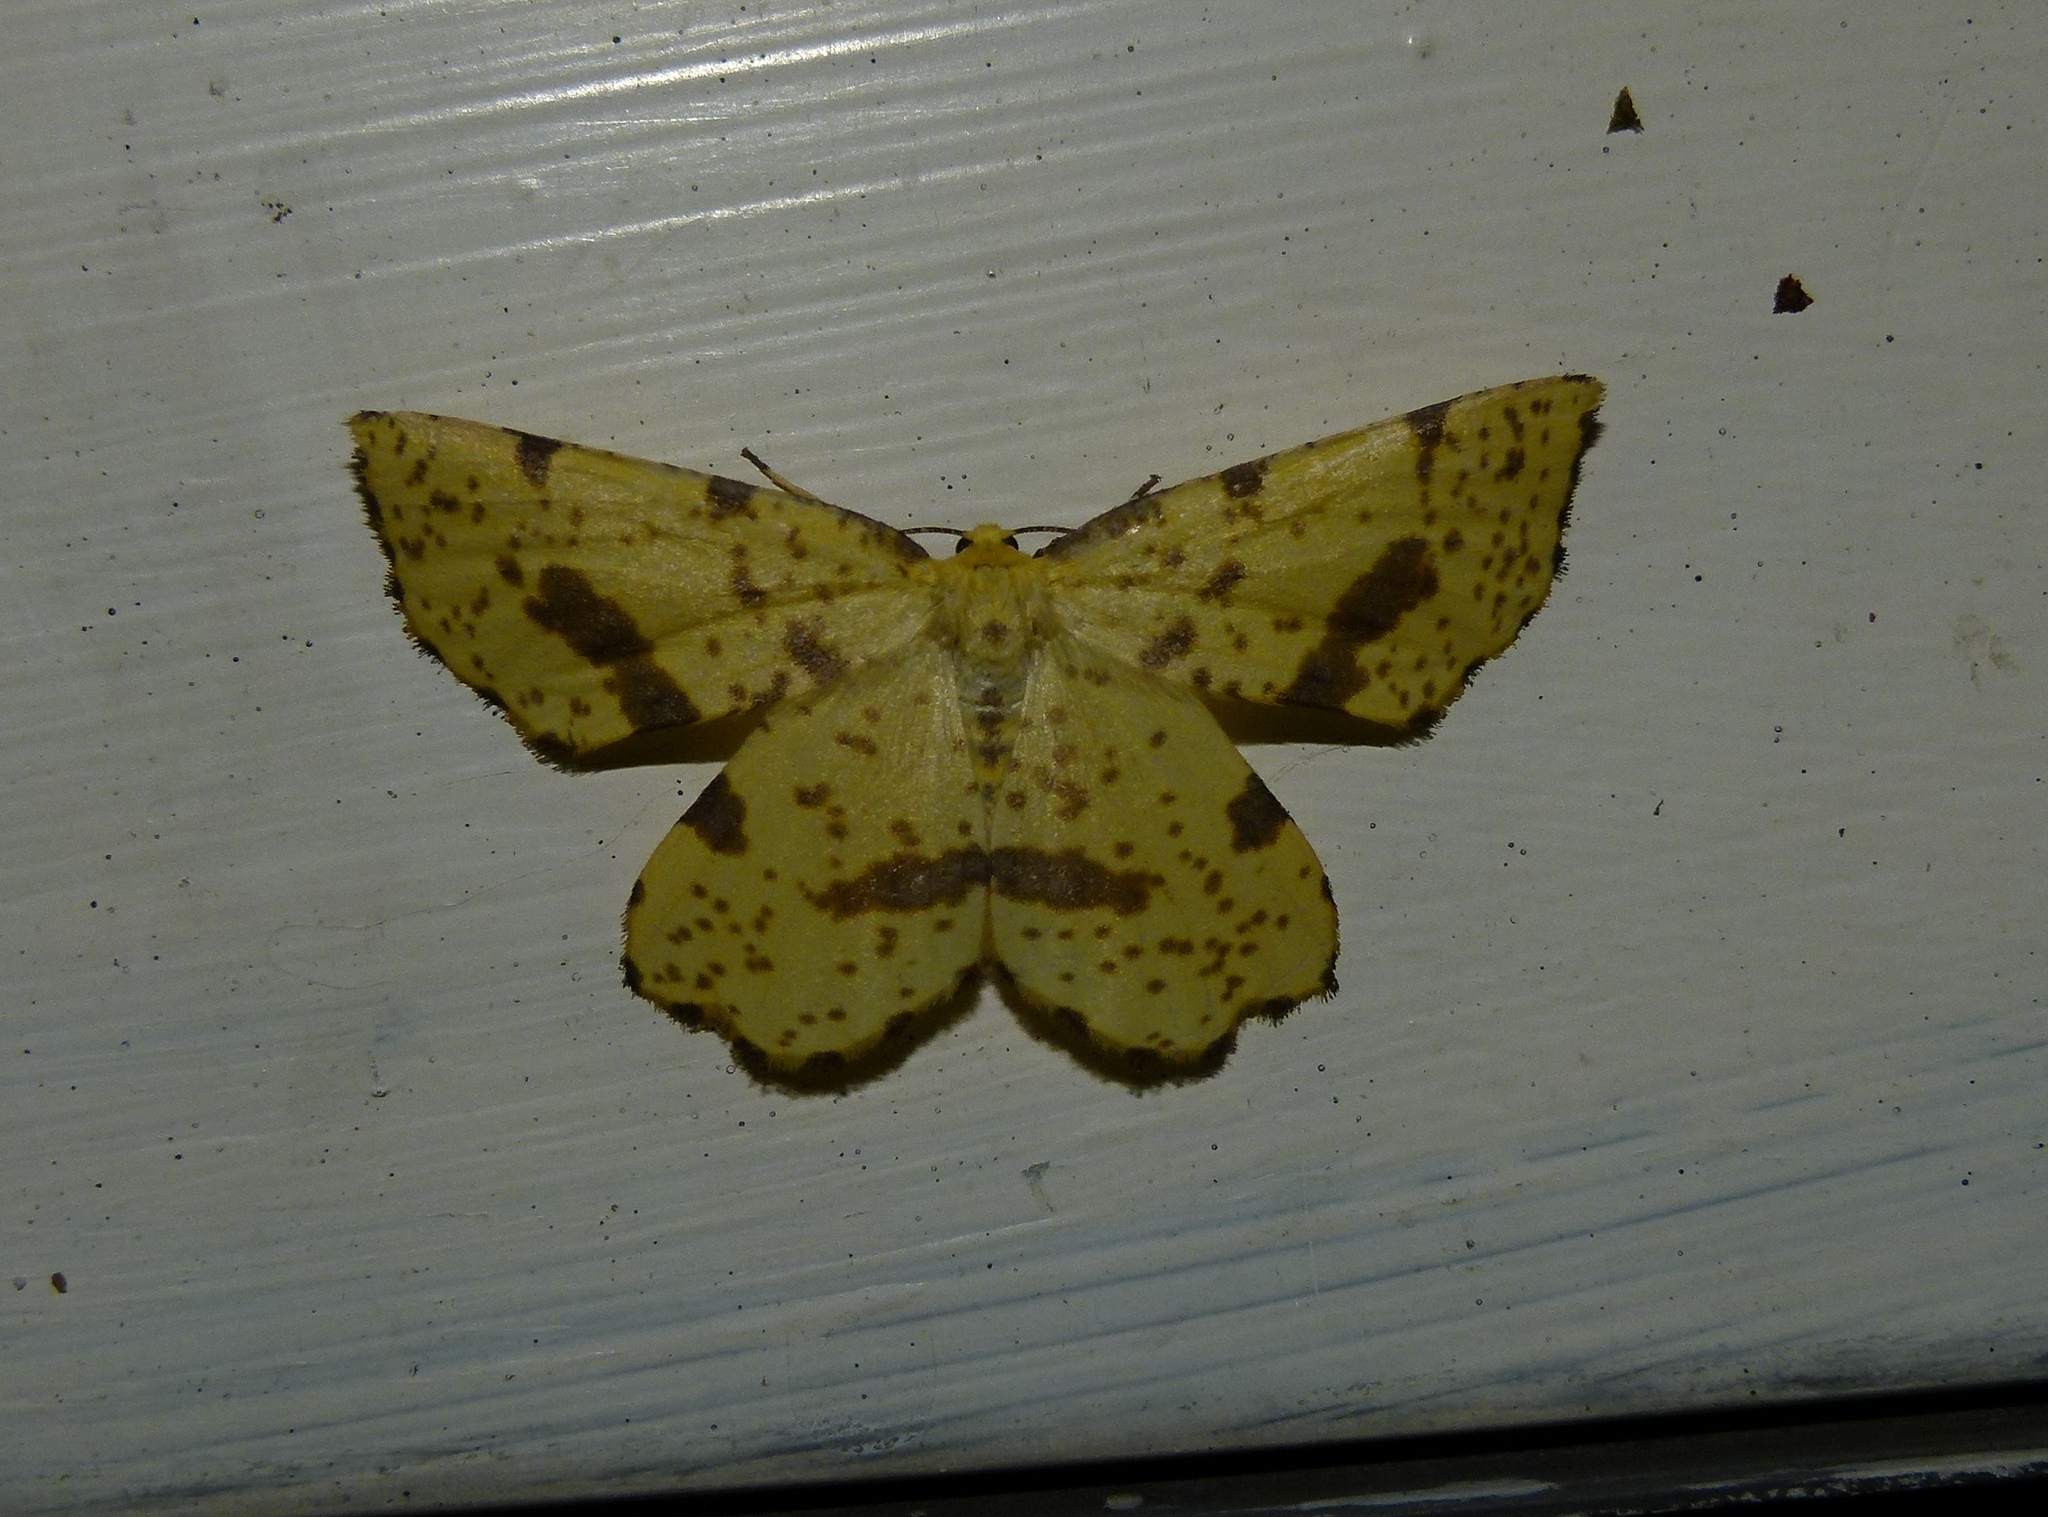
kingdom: Animalia
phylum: Arthropoda
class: Insecta
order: Lepidoptera
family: Geometridae
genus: Xanthotype
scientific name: Xanthotype
